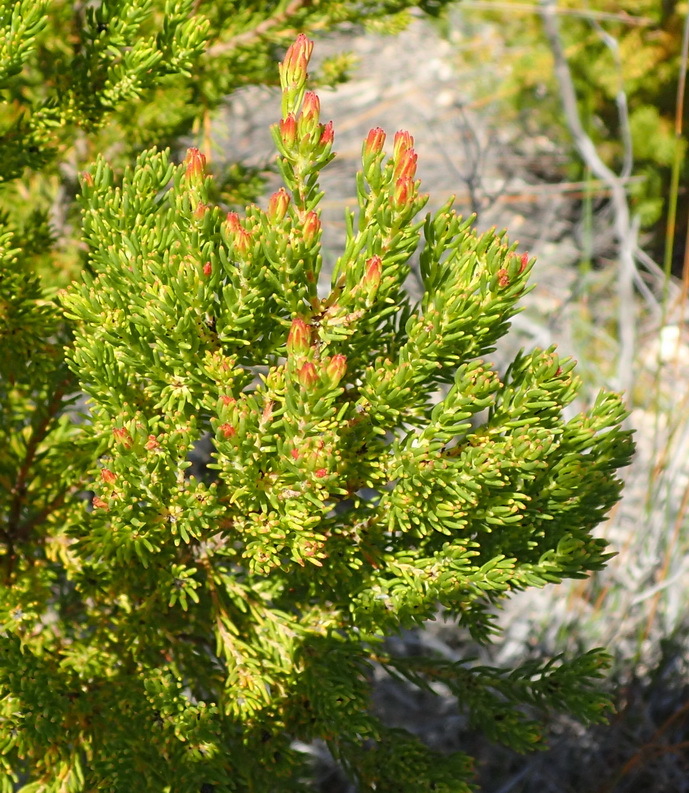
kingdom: Plantae
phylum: Tracheophyta
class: Magnoliopsida
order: Proteales
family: Proteaceae
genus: Leucadendron
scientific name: Leucadendron teretifolium
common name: Needle-leaf conebush
